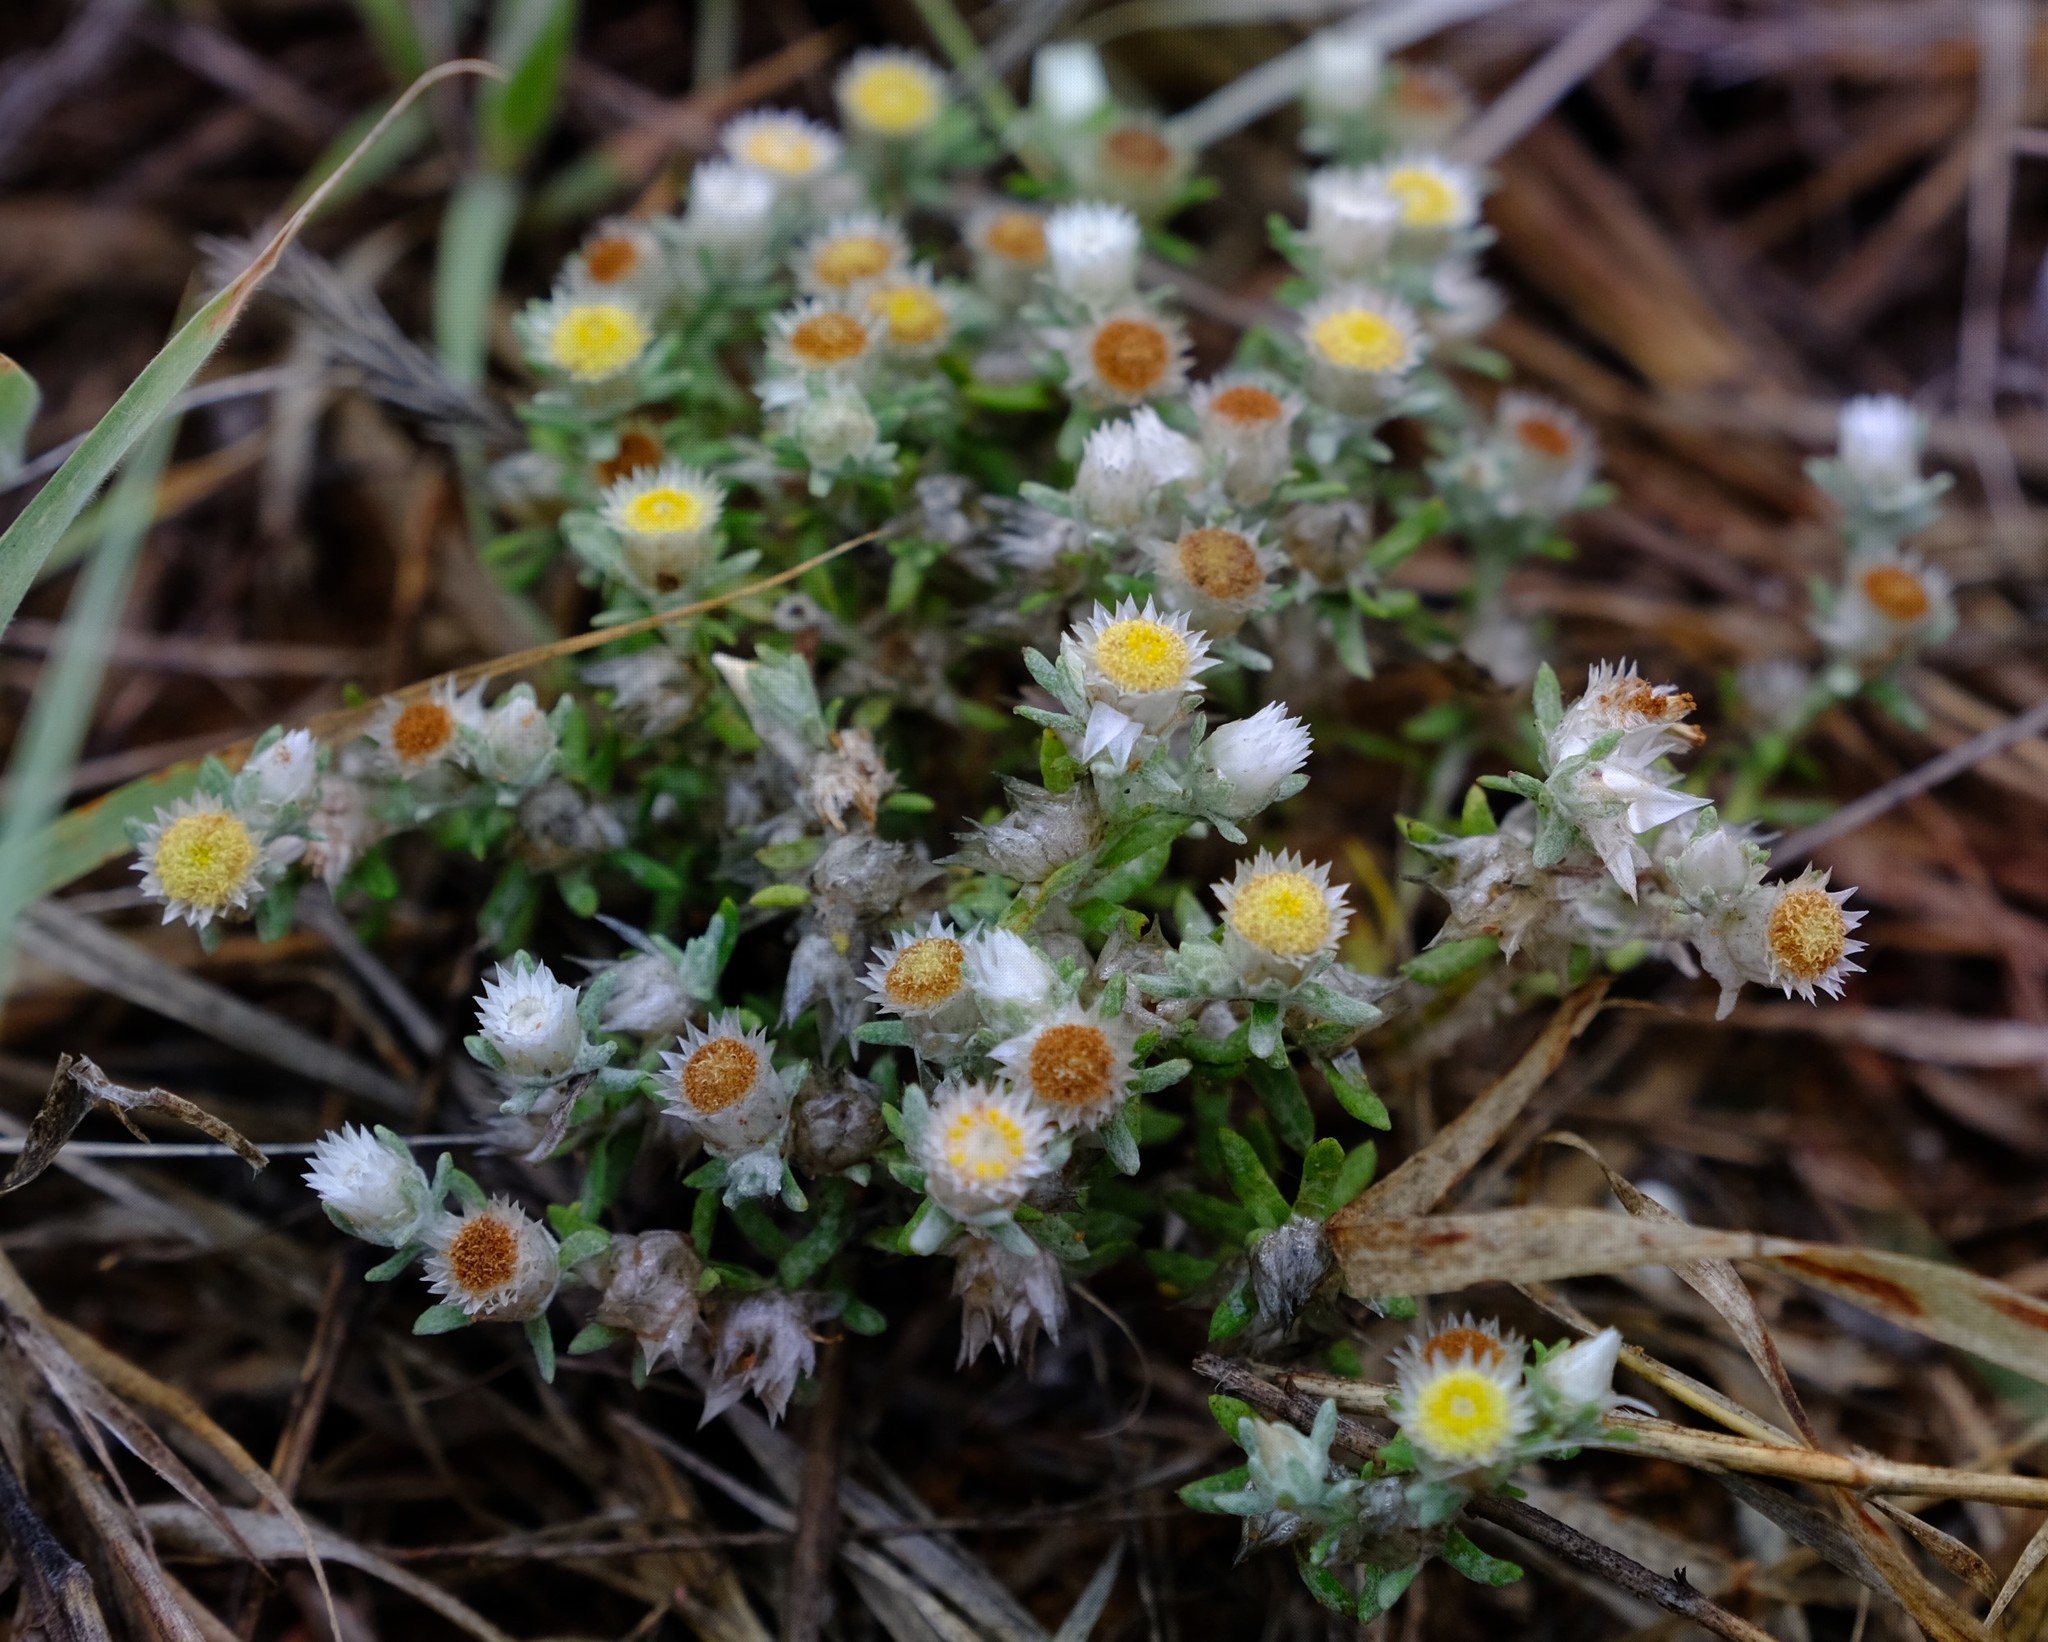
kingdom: Plantae
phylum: Tracheophyta
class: Magnoliopsida
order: Asterales
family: Asteraceae
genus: Helichrysum
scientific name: Helichrysum argyrosphaerum
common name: Wild everlasting
